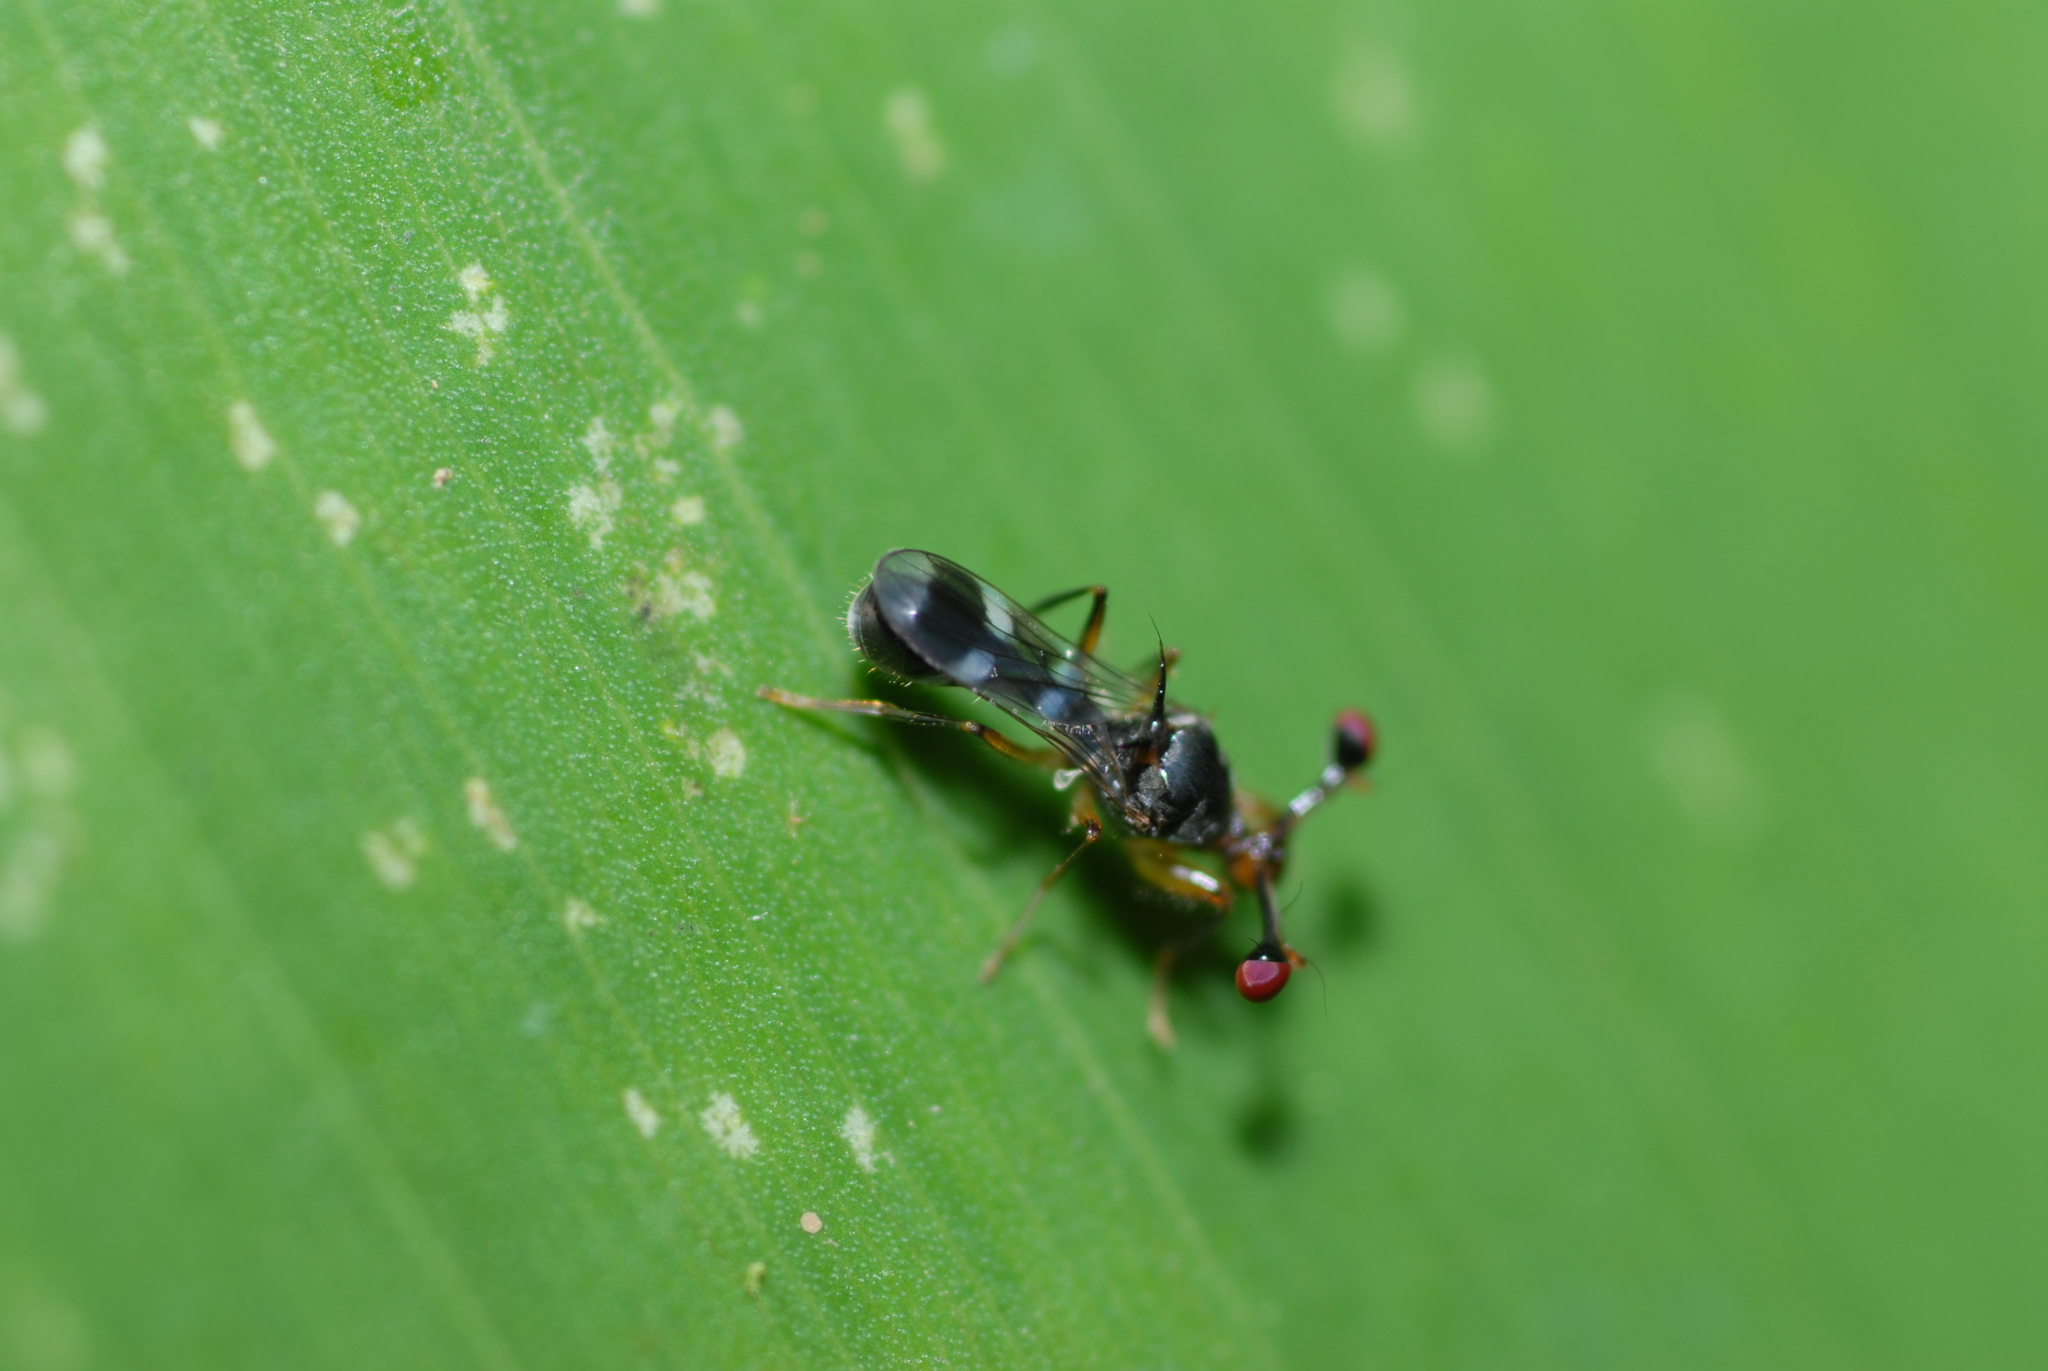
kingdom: Animalia
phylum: Arthropoda
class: Insecta
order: Diptera
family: Diopsidae
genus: Megalabops
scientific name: Megalabops
